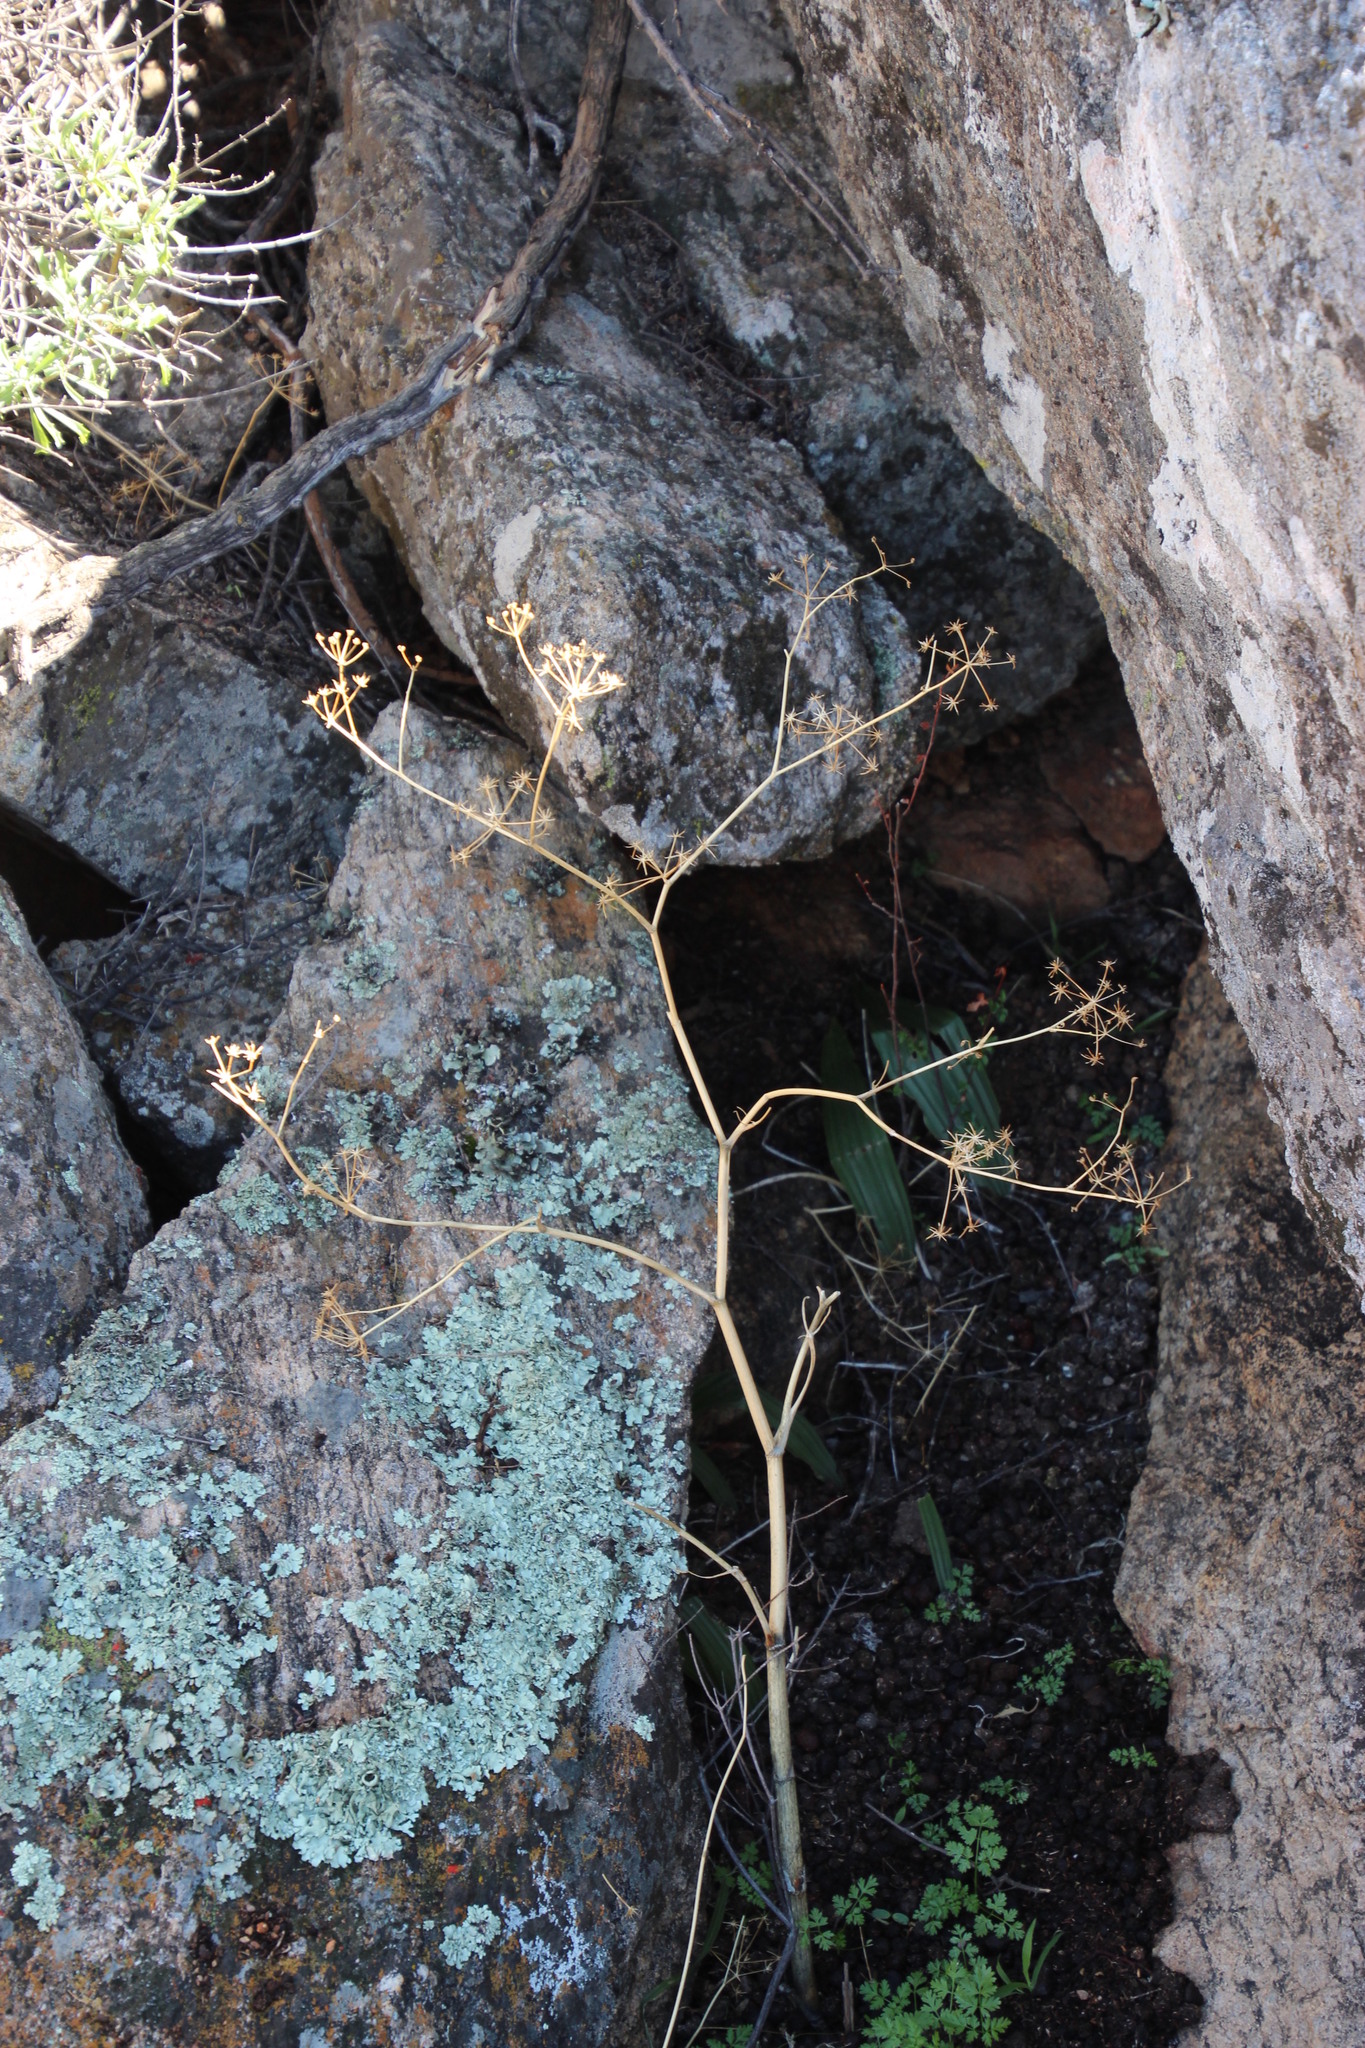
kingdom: Plantae
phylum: Tracheophyta
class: Magnoliopsida
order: Apiales
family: Apiaceae
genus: Conium
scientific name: Conium sphaerocarpum
